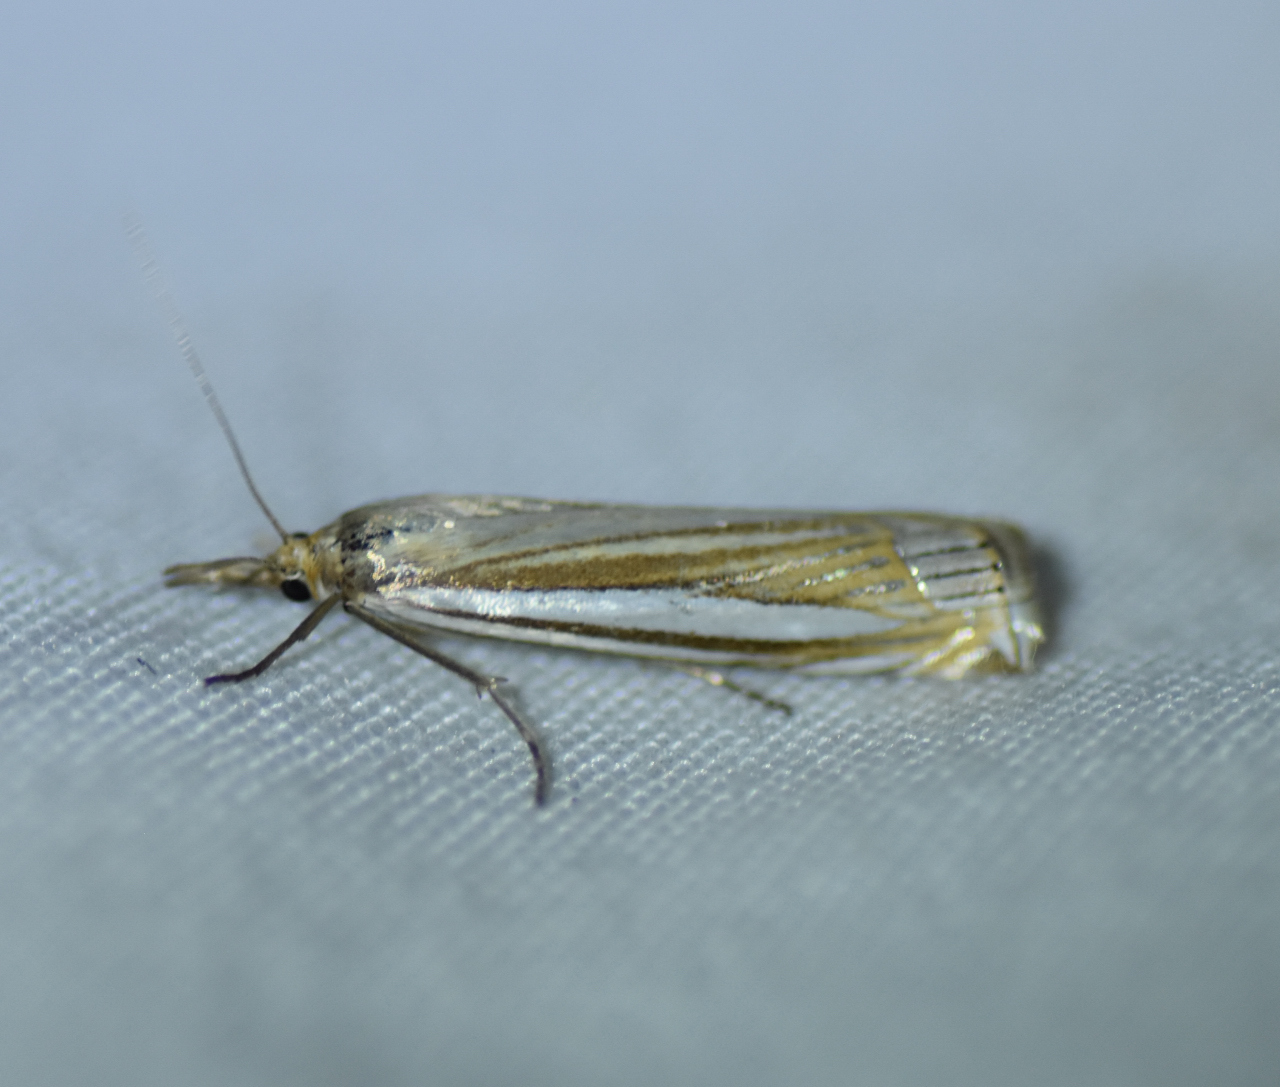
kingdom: Animalia
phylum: Arthropoda
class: Insecta
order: Lepidoptera
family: Crambidae
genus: Crambus
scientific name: Crambus laqueatellus
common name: Eastern grass-veneer
